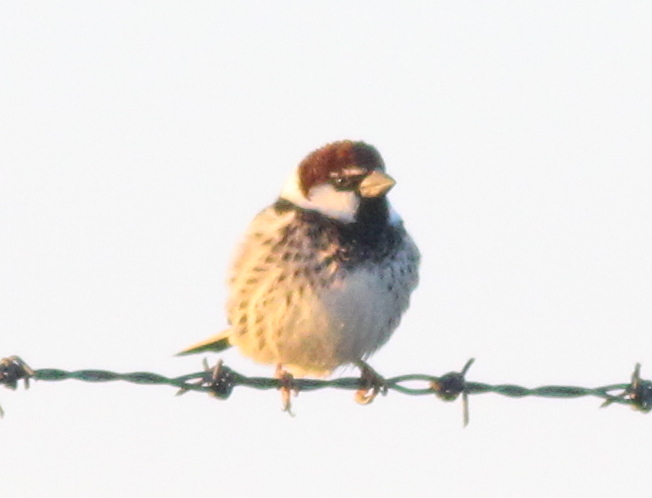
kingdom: Animalia
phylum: Chordata
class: Aves
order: Passeriformes
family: Passeridae
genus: Passer
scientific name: Passer hispaniolensis
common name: Spanish sparrow
